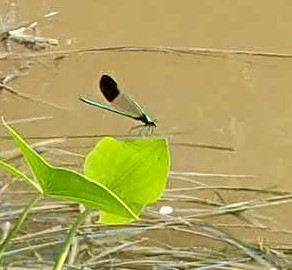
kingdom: Animalia
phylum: Arthropoda
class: Insecta
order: Odonata
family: Calopterygidae
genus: Calopteryx
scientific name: Calopteryx aequabilis
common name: River jewelwing
